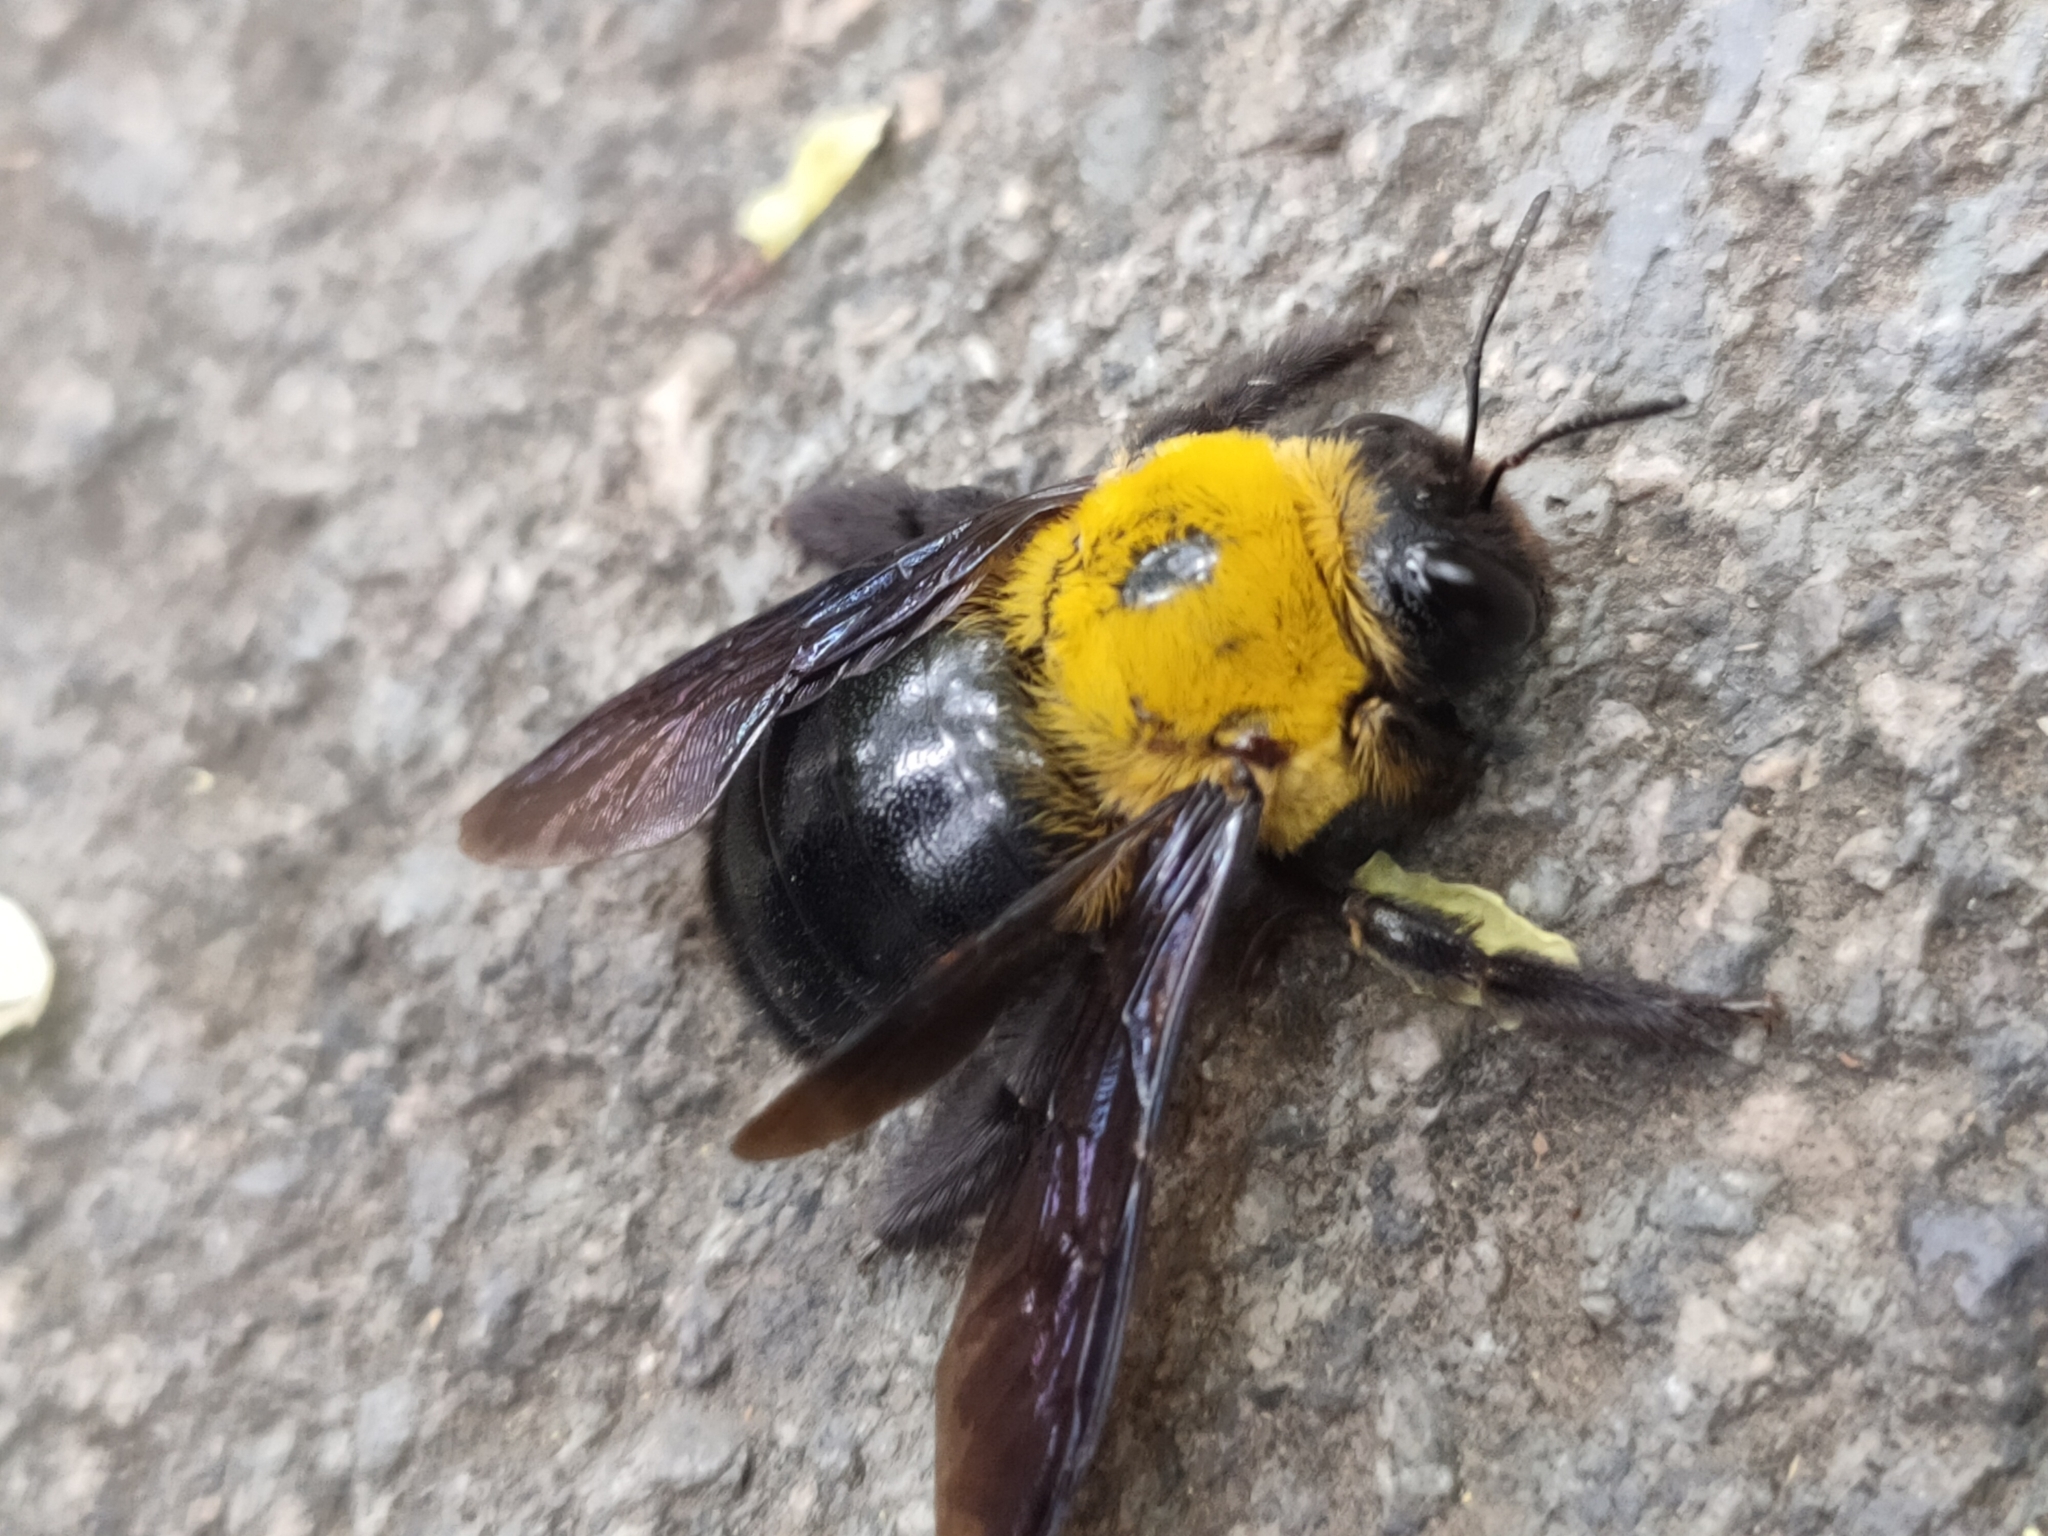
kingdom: Animalia
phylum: Arthropoda
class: Insecta
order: Hymenoptera
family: Apidae
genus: Xylocopa
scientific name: Xylocopa appendiculata
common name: Japanese carpenter bee
